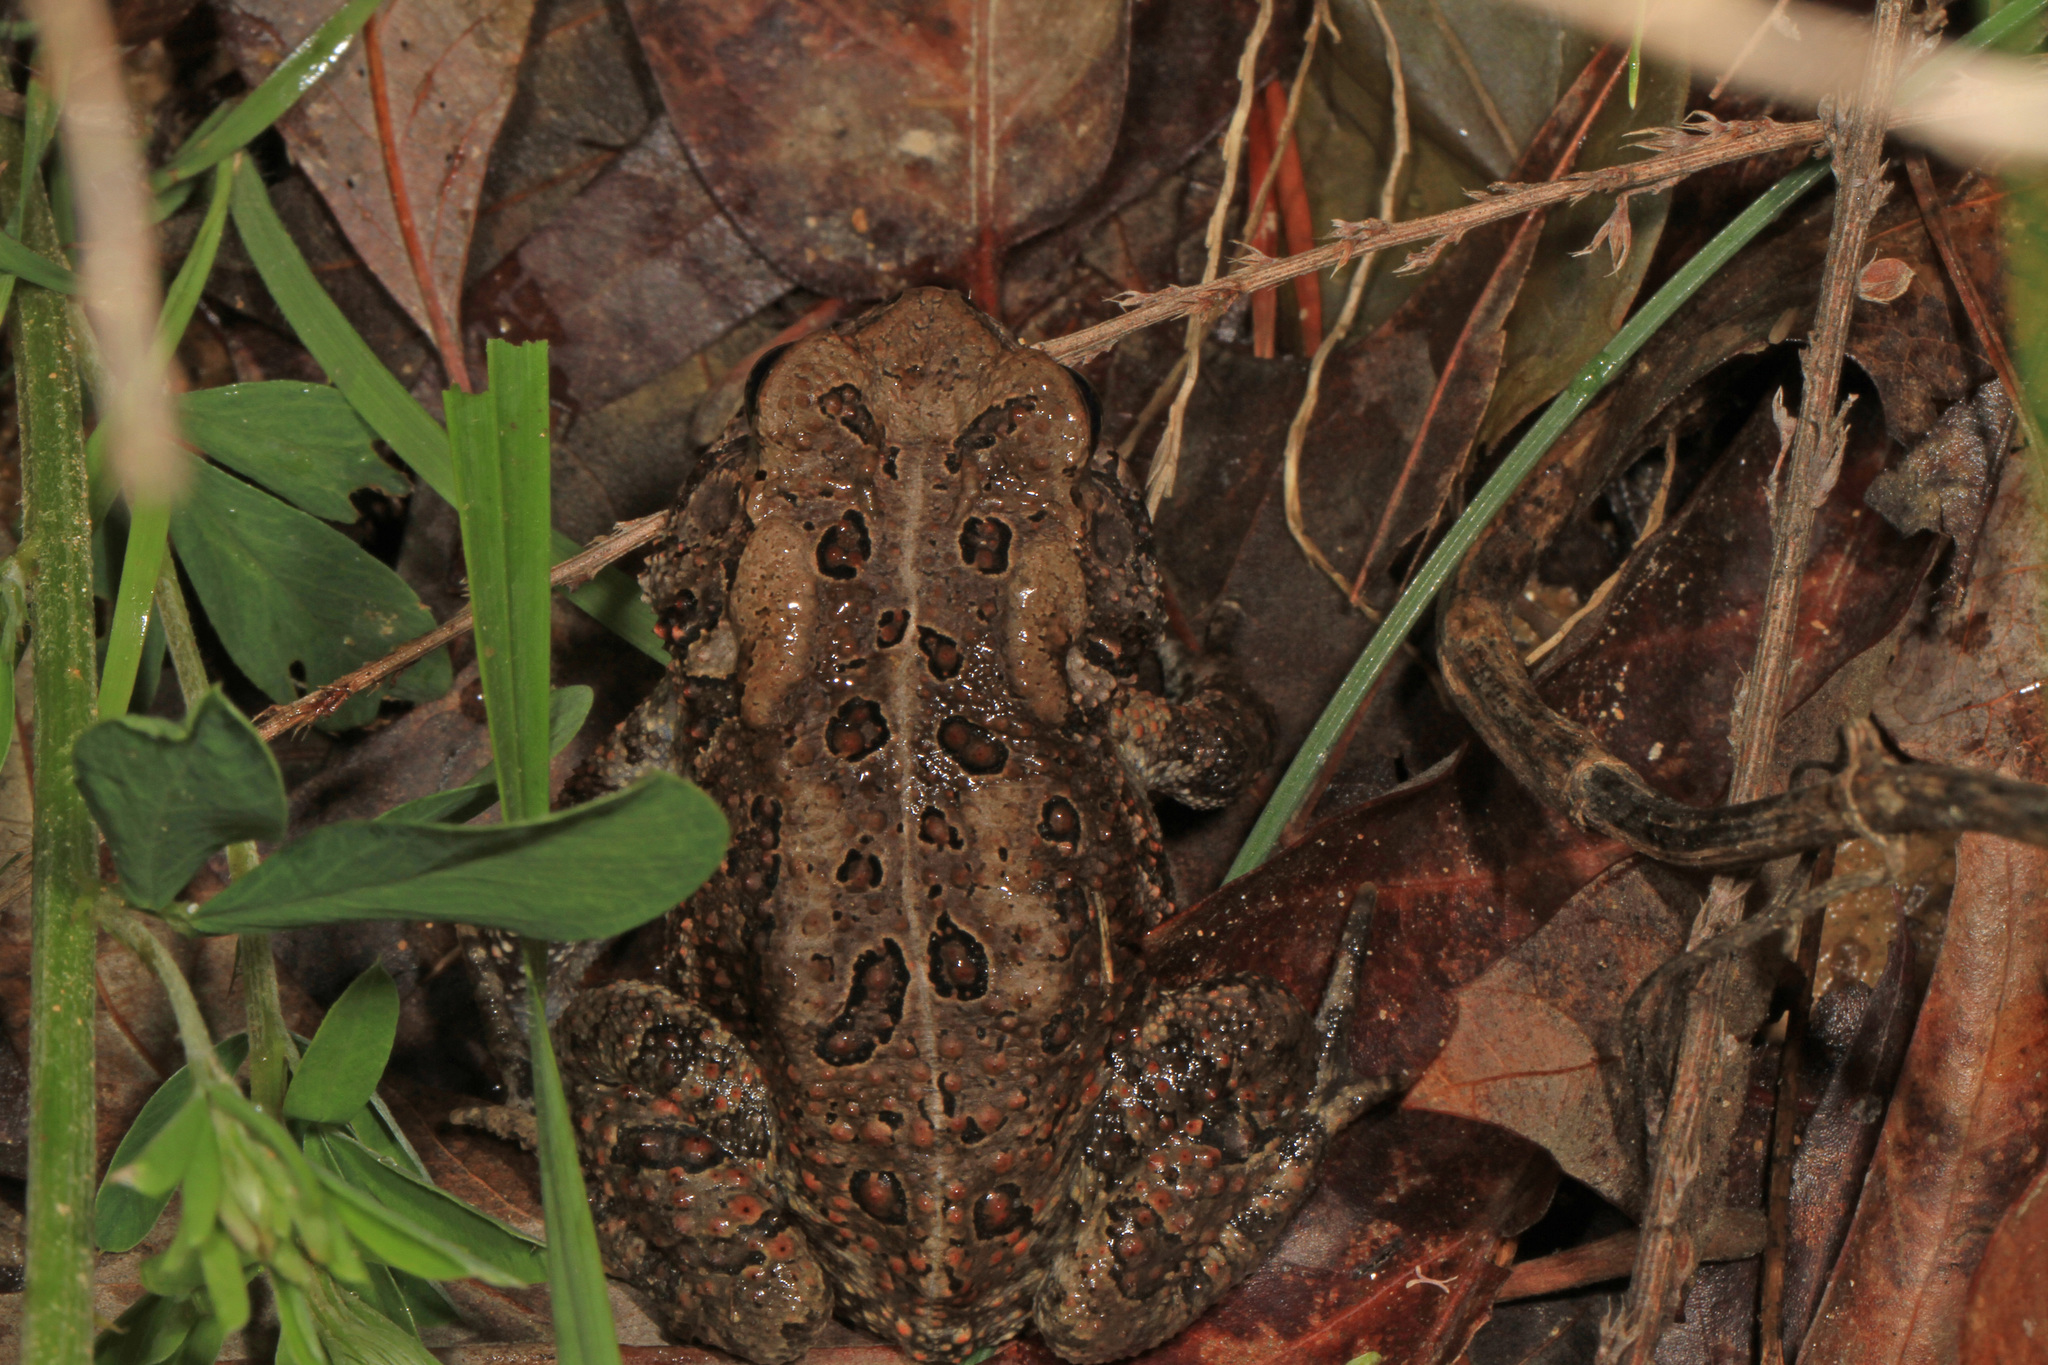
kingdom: Animalia
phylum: Chordata
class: Amphibia
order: Anura
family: Bufonidae
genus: Anaxyrus
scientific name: Anaxyrus americanus
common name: American toad
